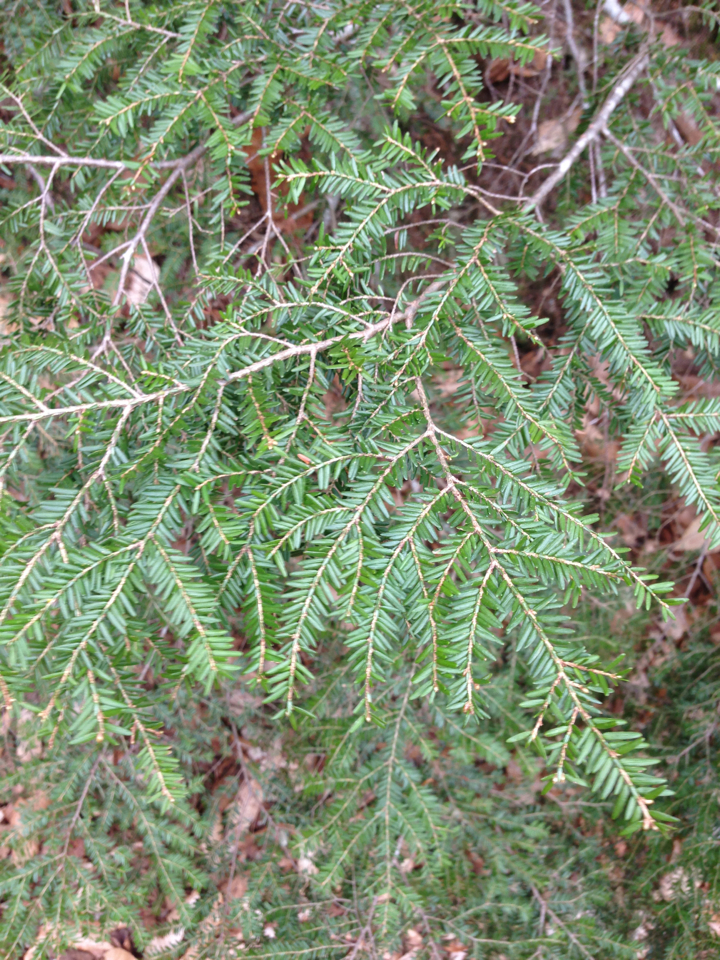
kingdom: Plantae
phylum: Tracheophyta
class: Pinopsida
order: Pinales
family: Pinaceae
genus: Tsuga
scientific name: Tsuga canadensis
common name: Eastern hemlock
